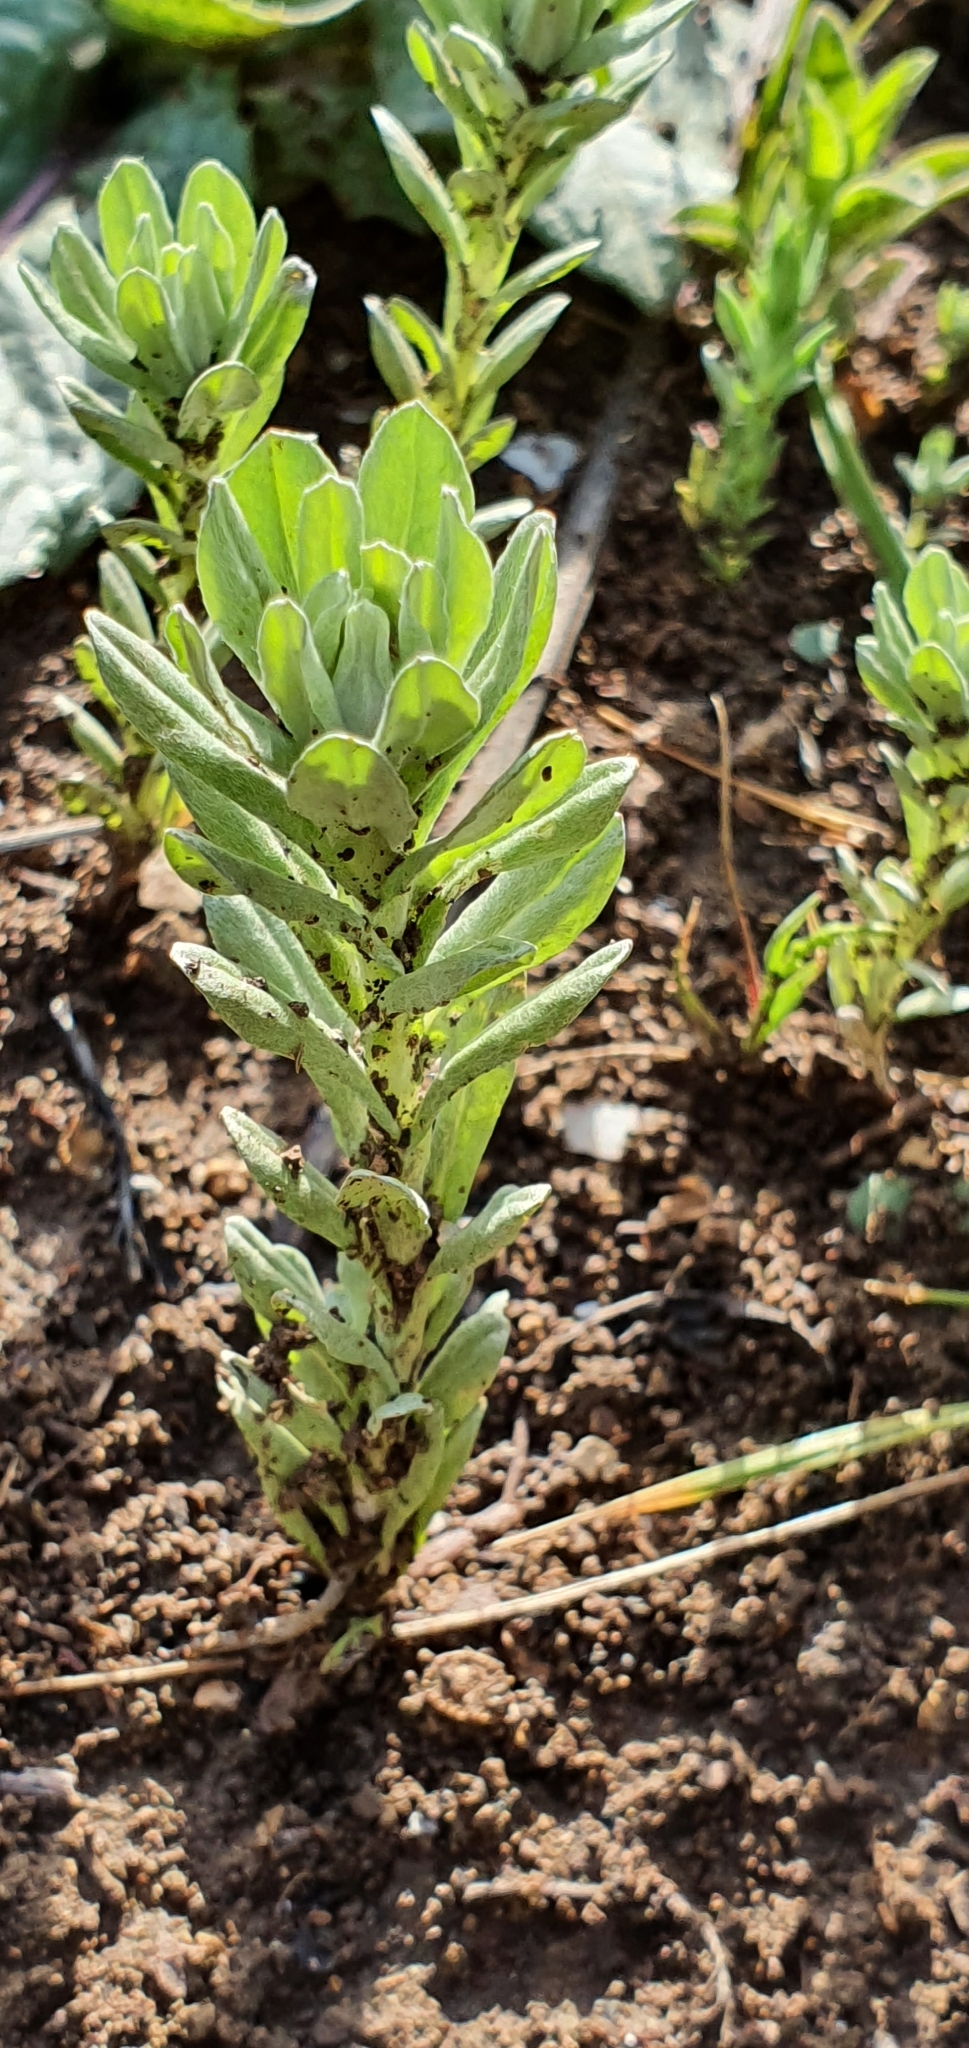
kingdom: Plantae
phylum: Tracheophyta
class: Magnoliopsida
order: Asterales
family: Asteraceae
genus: Filago
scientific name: Filago pygmaea
